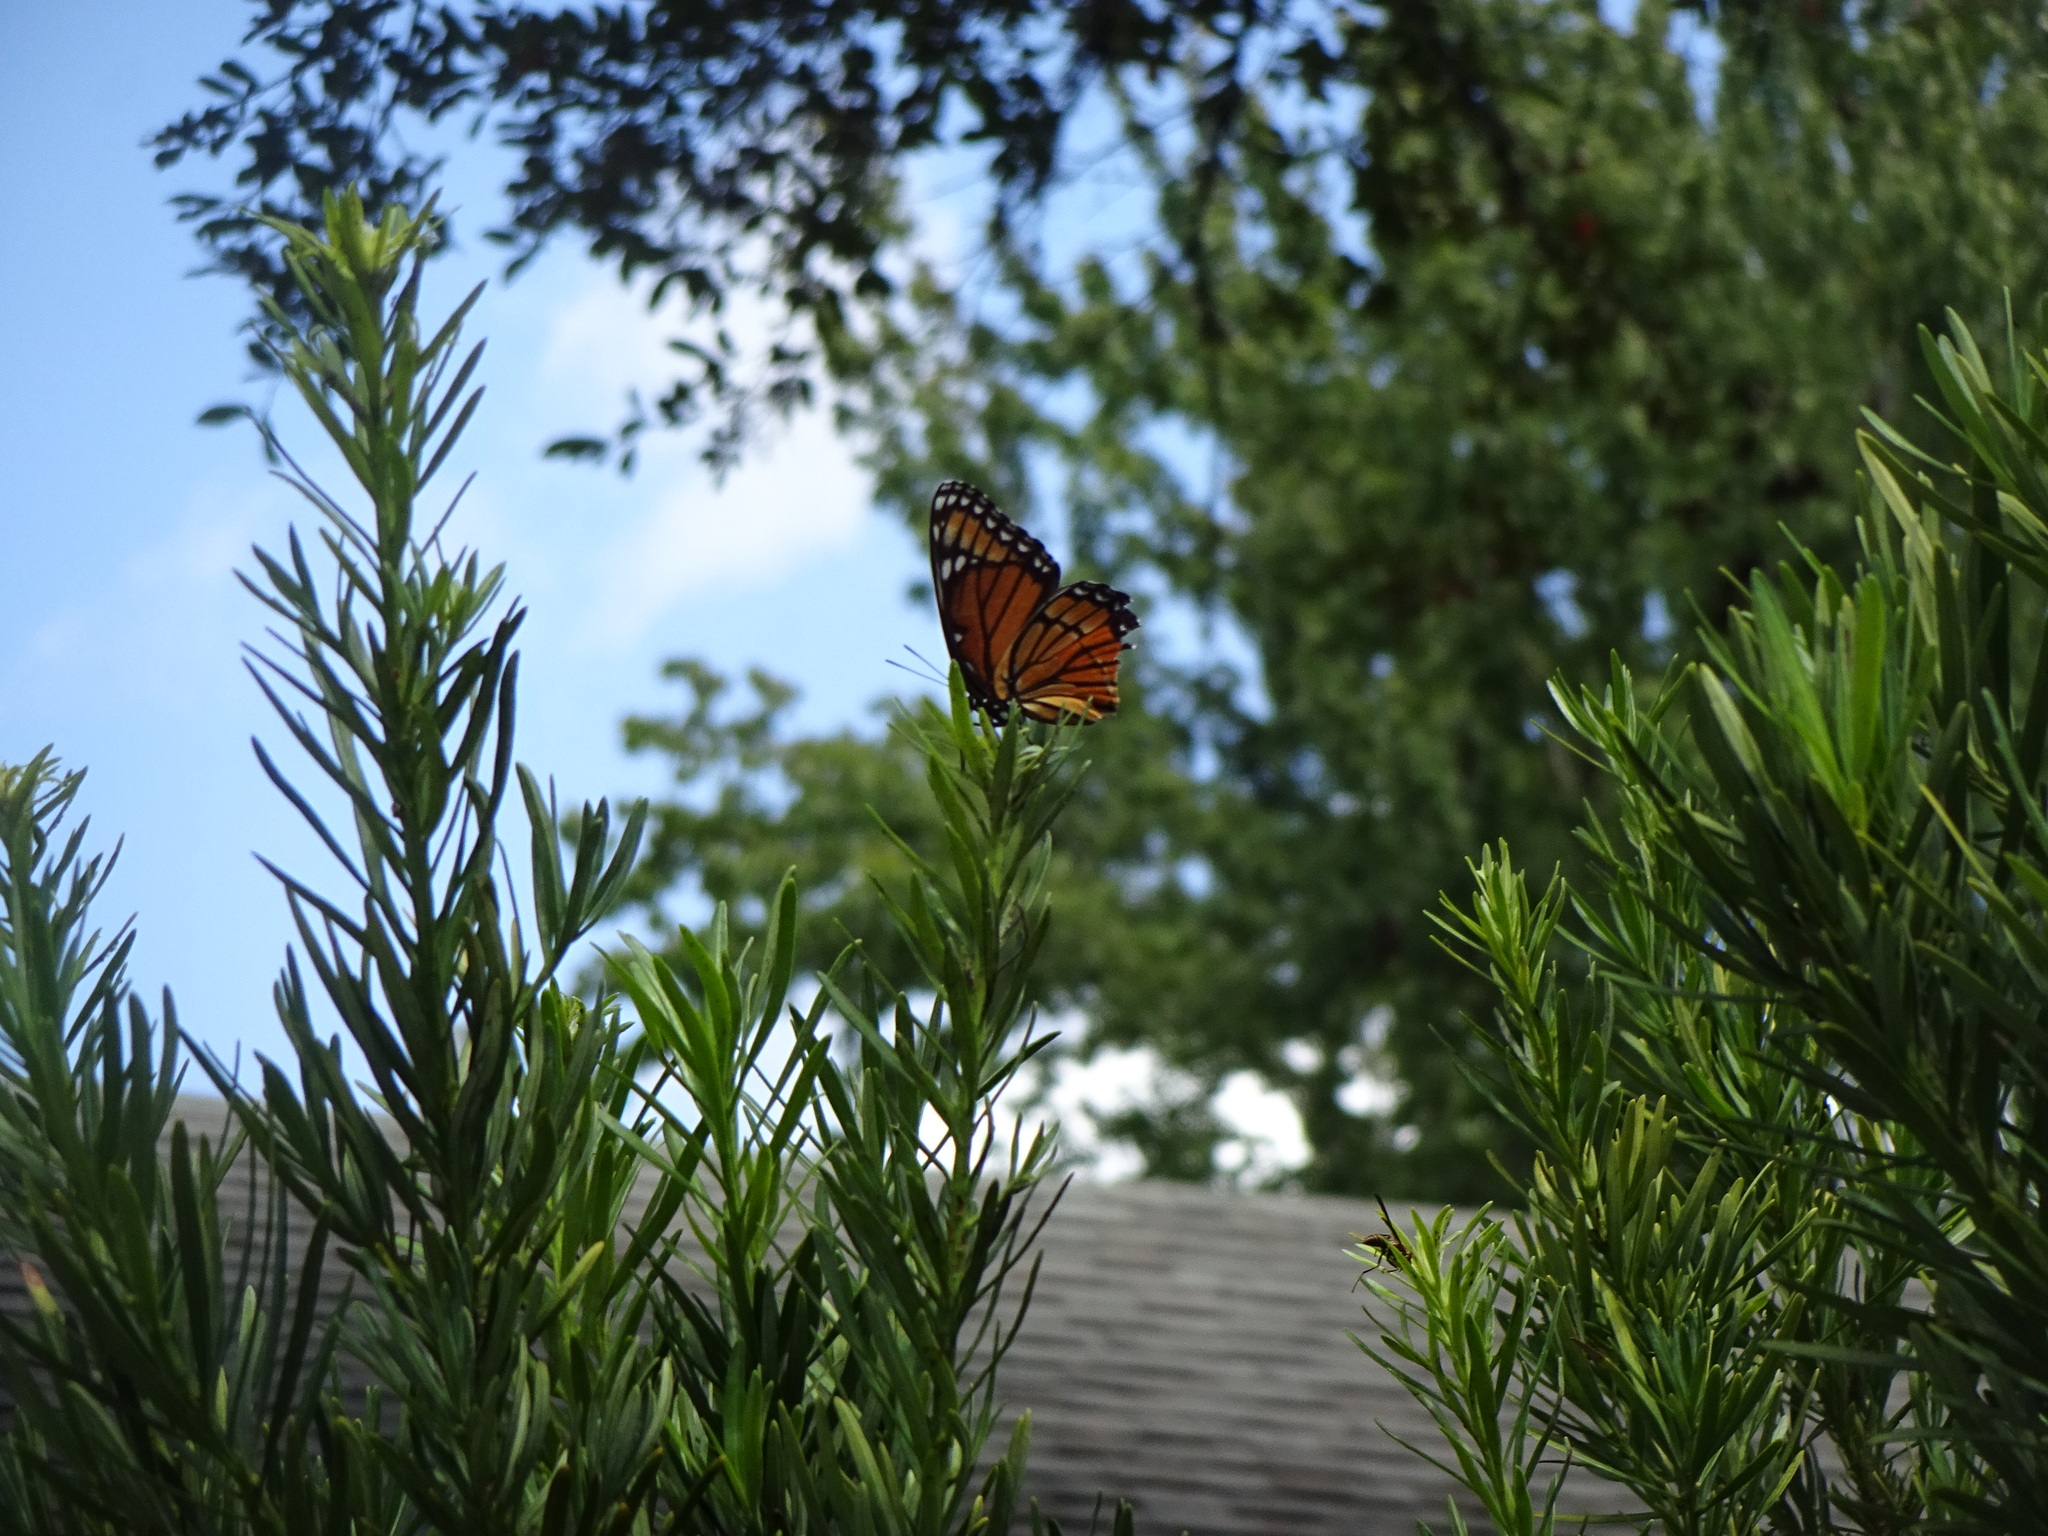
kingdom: Animalia
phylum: Arthropoda
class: Insecta
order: Lepidoptera
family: Nymphalidae
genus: Limenitis
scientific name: Limenitis archippus
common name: Viceroy
